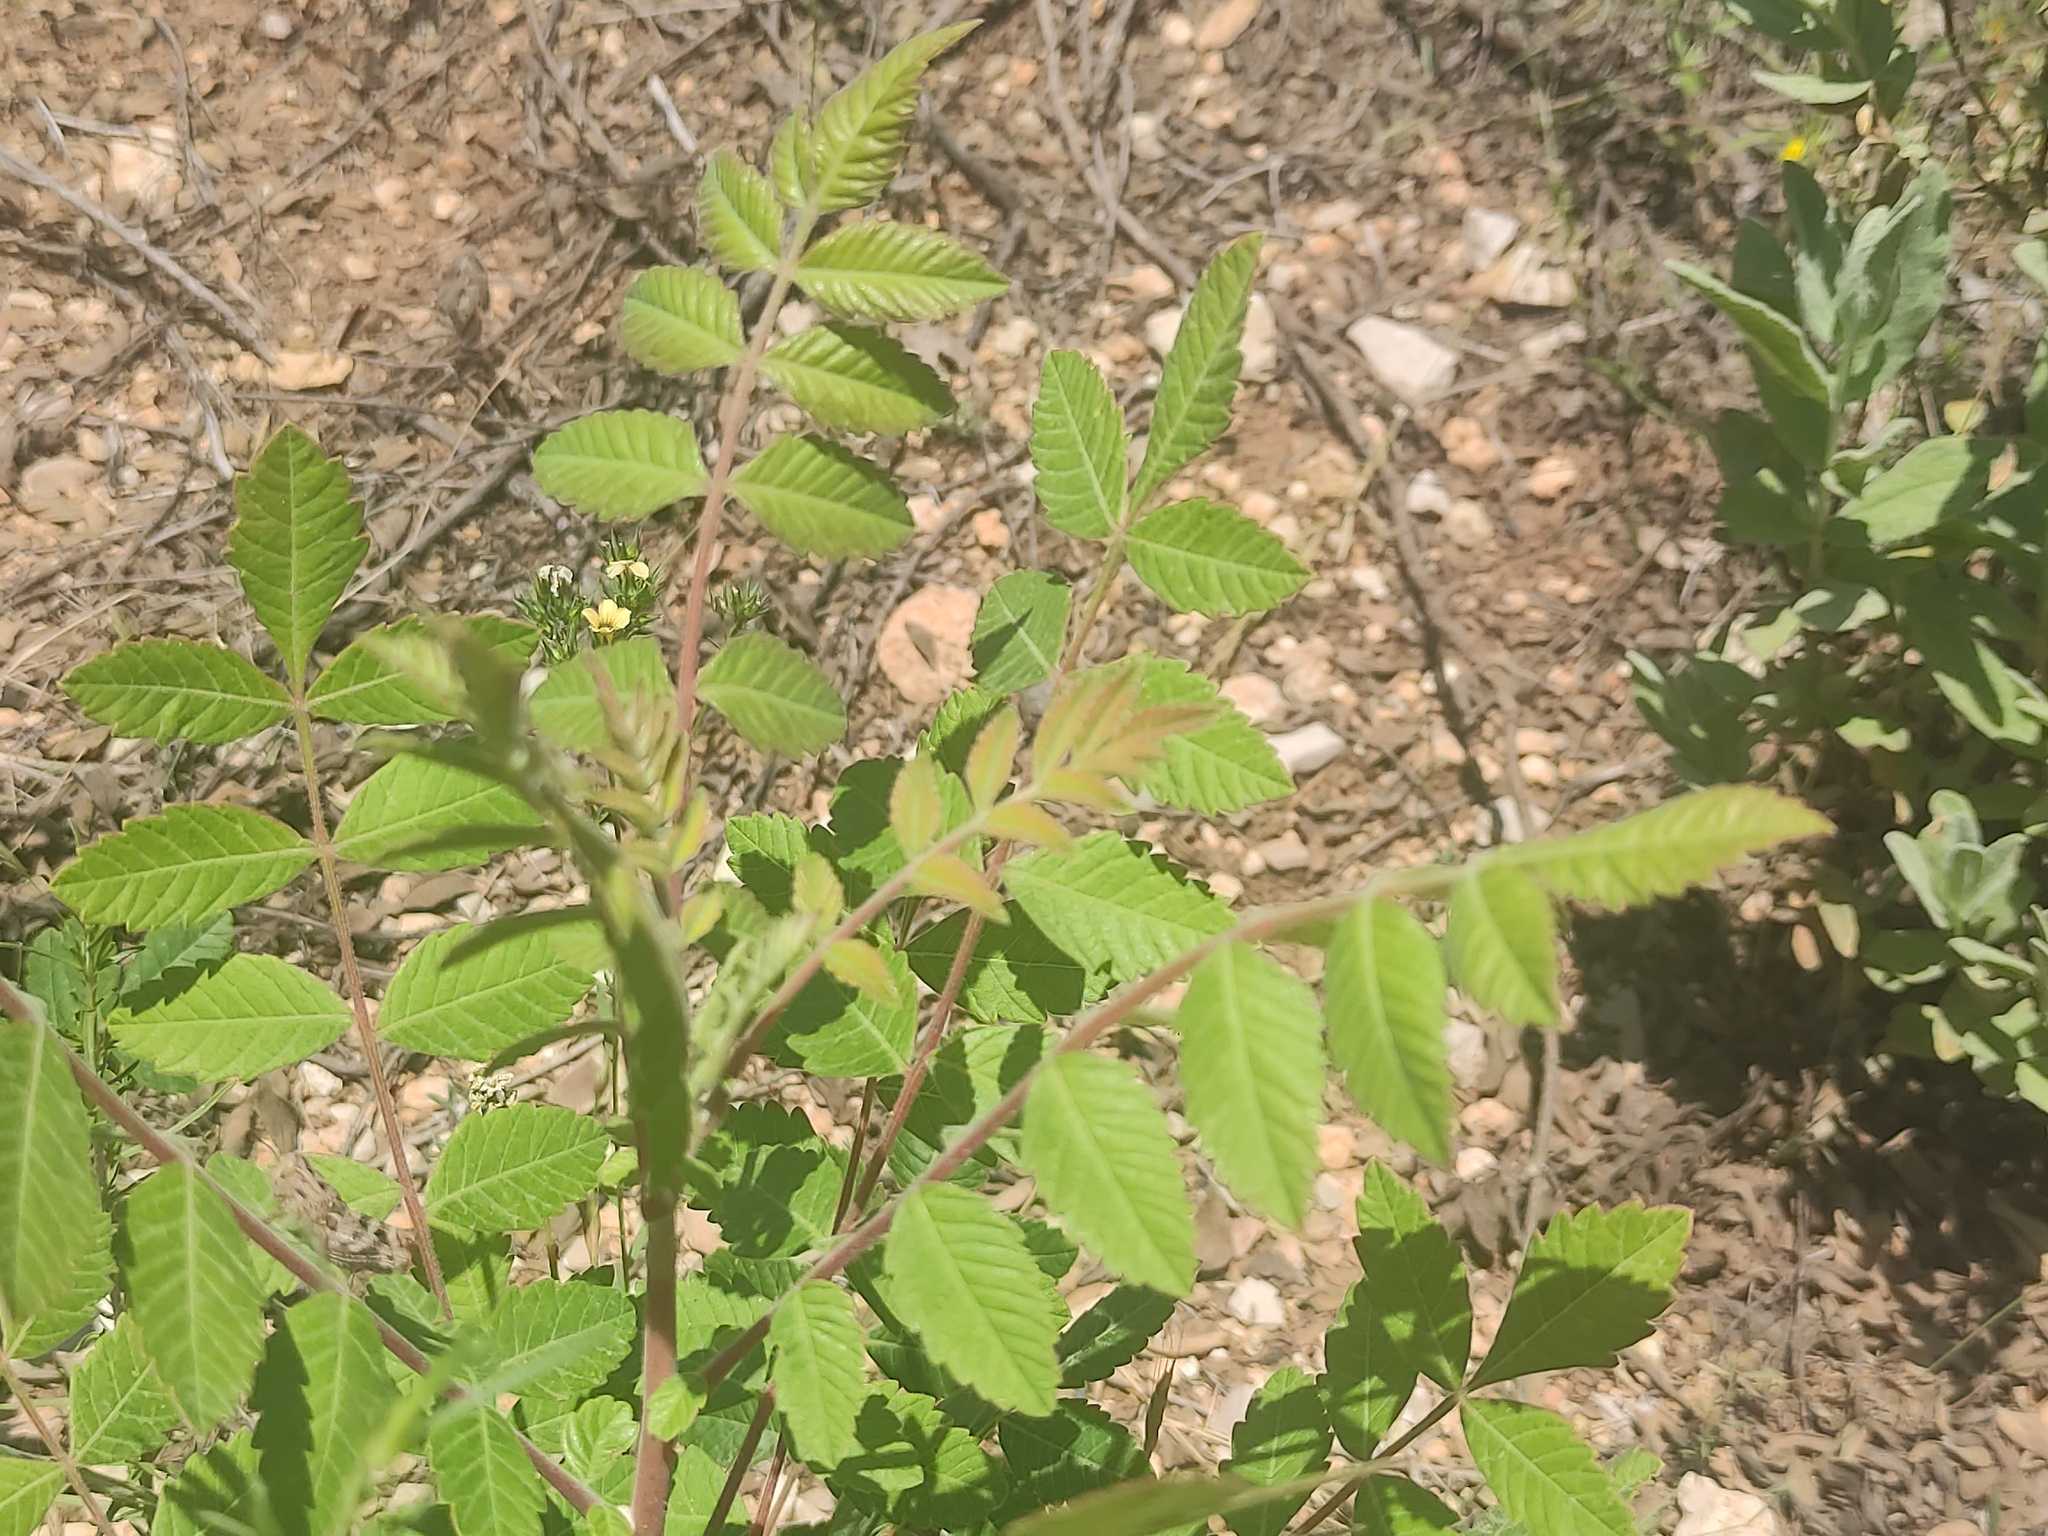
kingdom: Plantae
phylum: Tracheophyta
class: Magnoliopsida
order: Sapindales
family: Anacardiaceae
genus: Rhus
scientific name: Rhus coriaria
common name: Tanner's sumach
